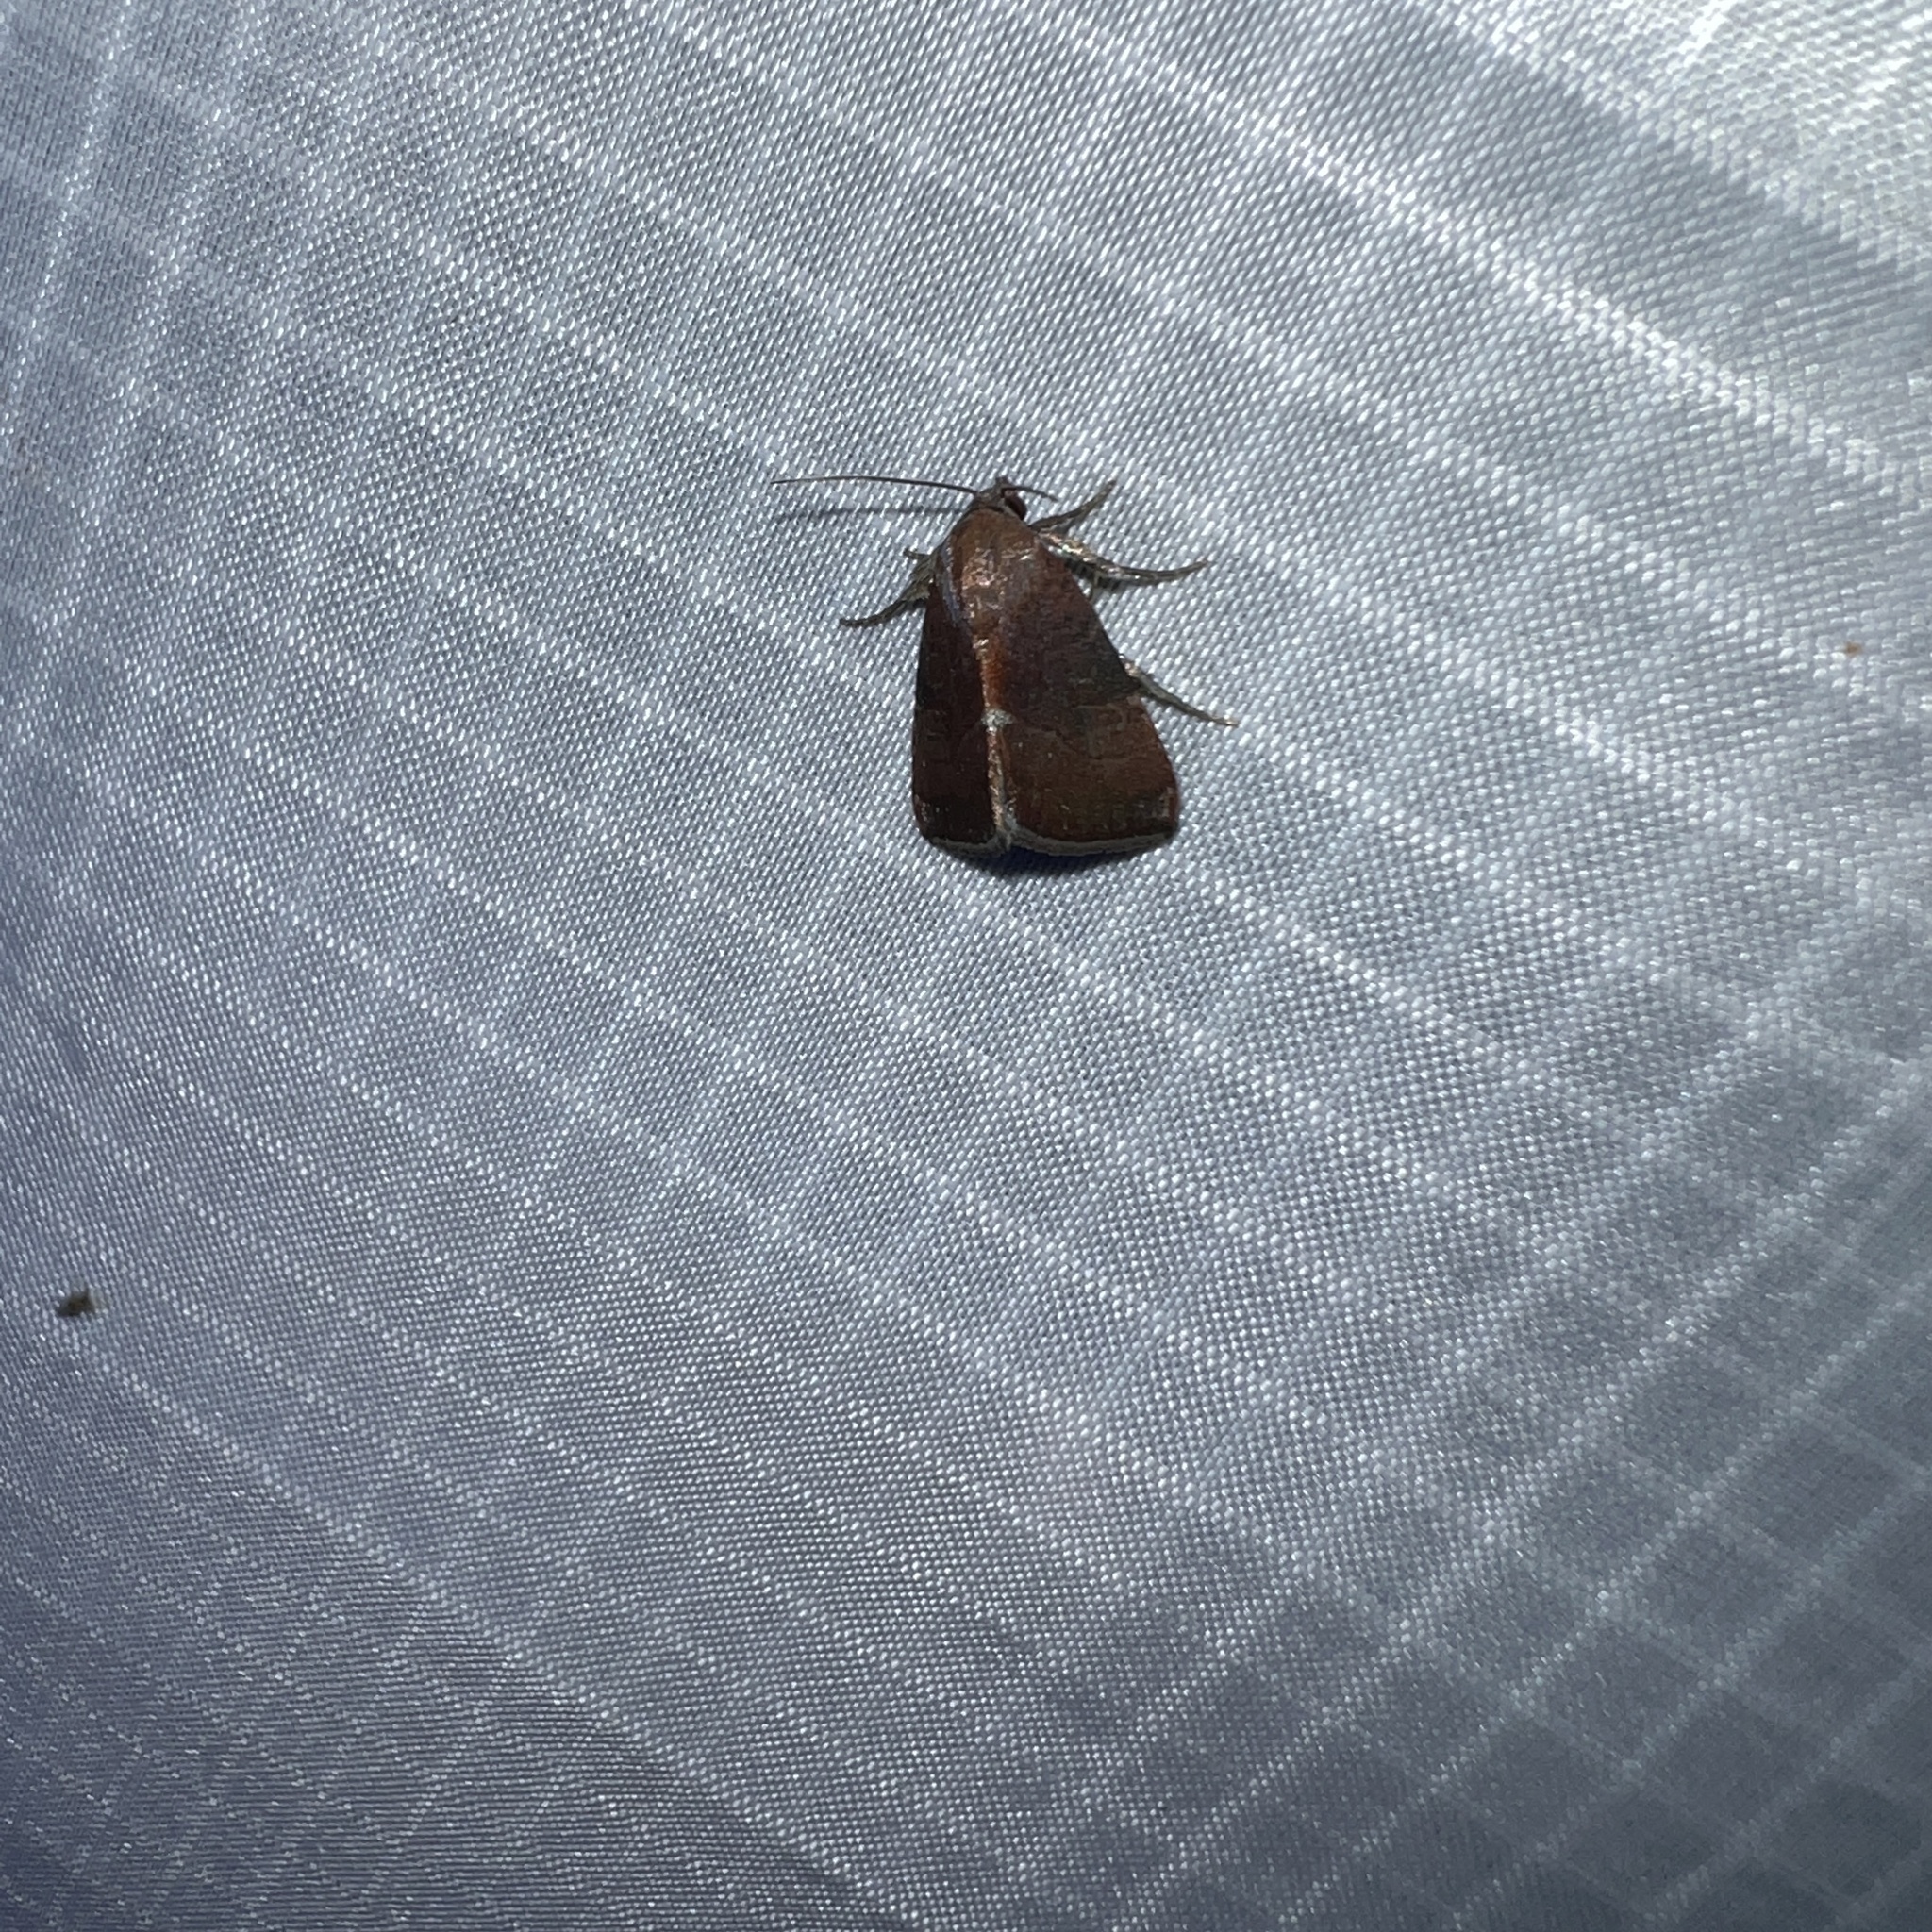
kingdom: Animalia
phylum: Arthropoda
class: Insecta
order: Lepidoptera
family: Noctuidae
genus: Galgula
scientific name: Galgula partita
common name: Wedgeling
